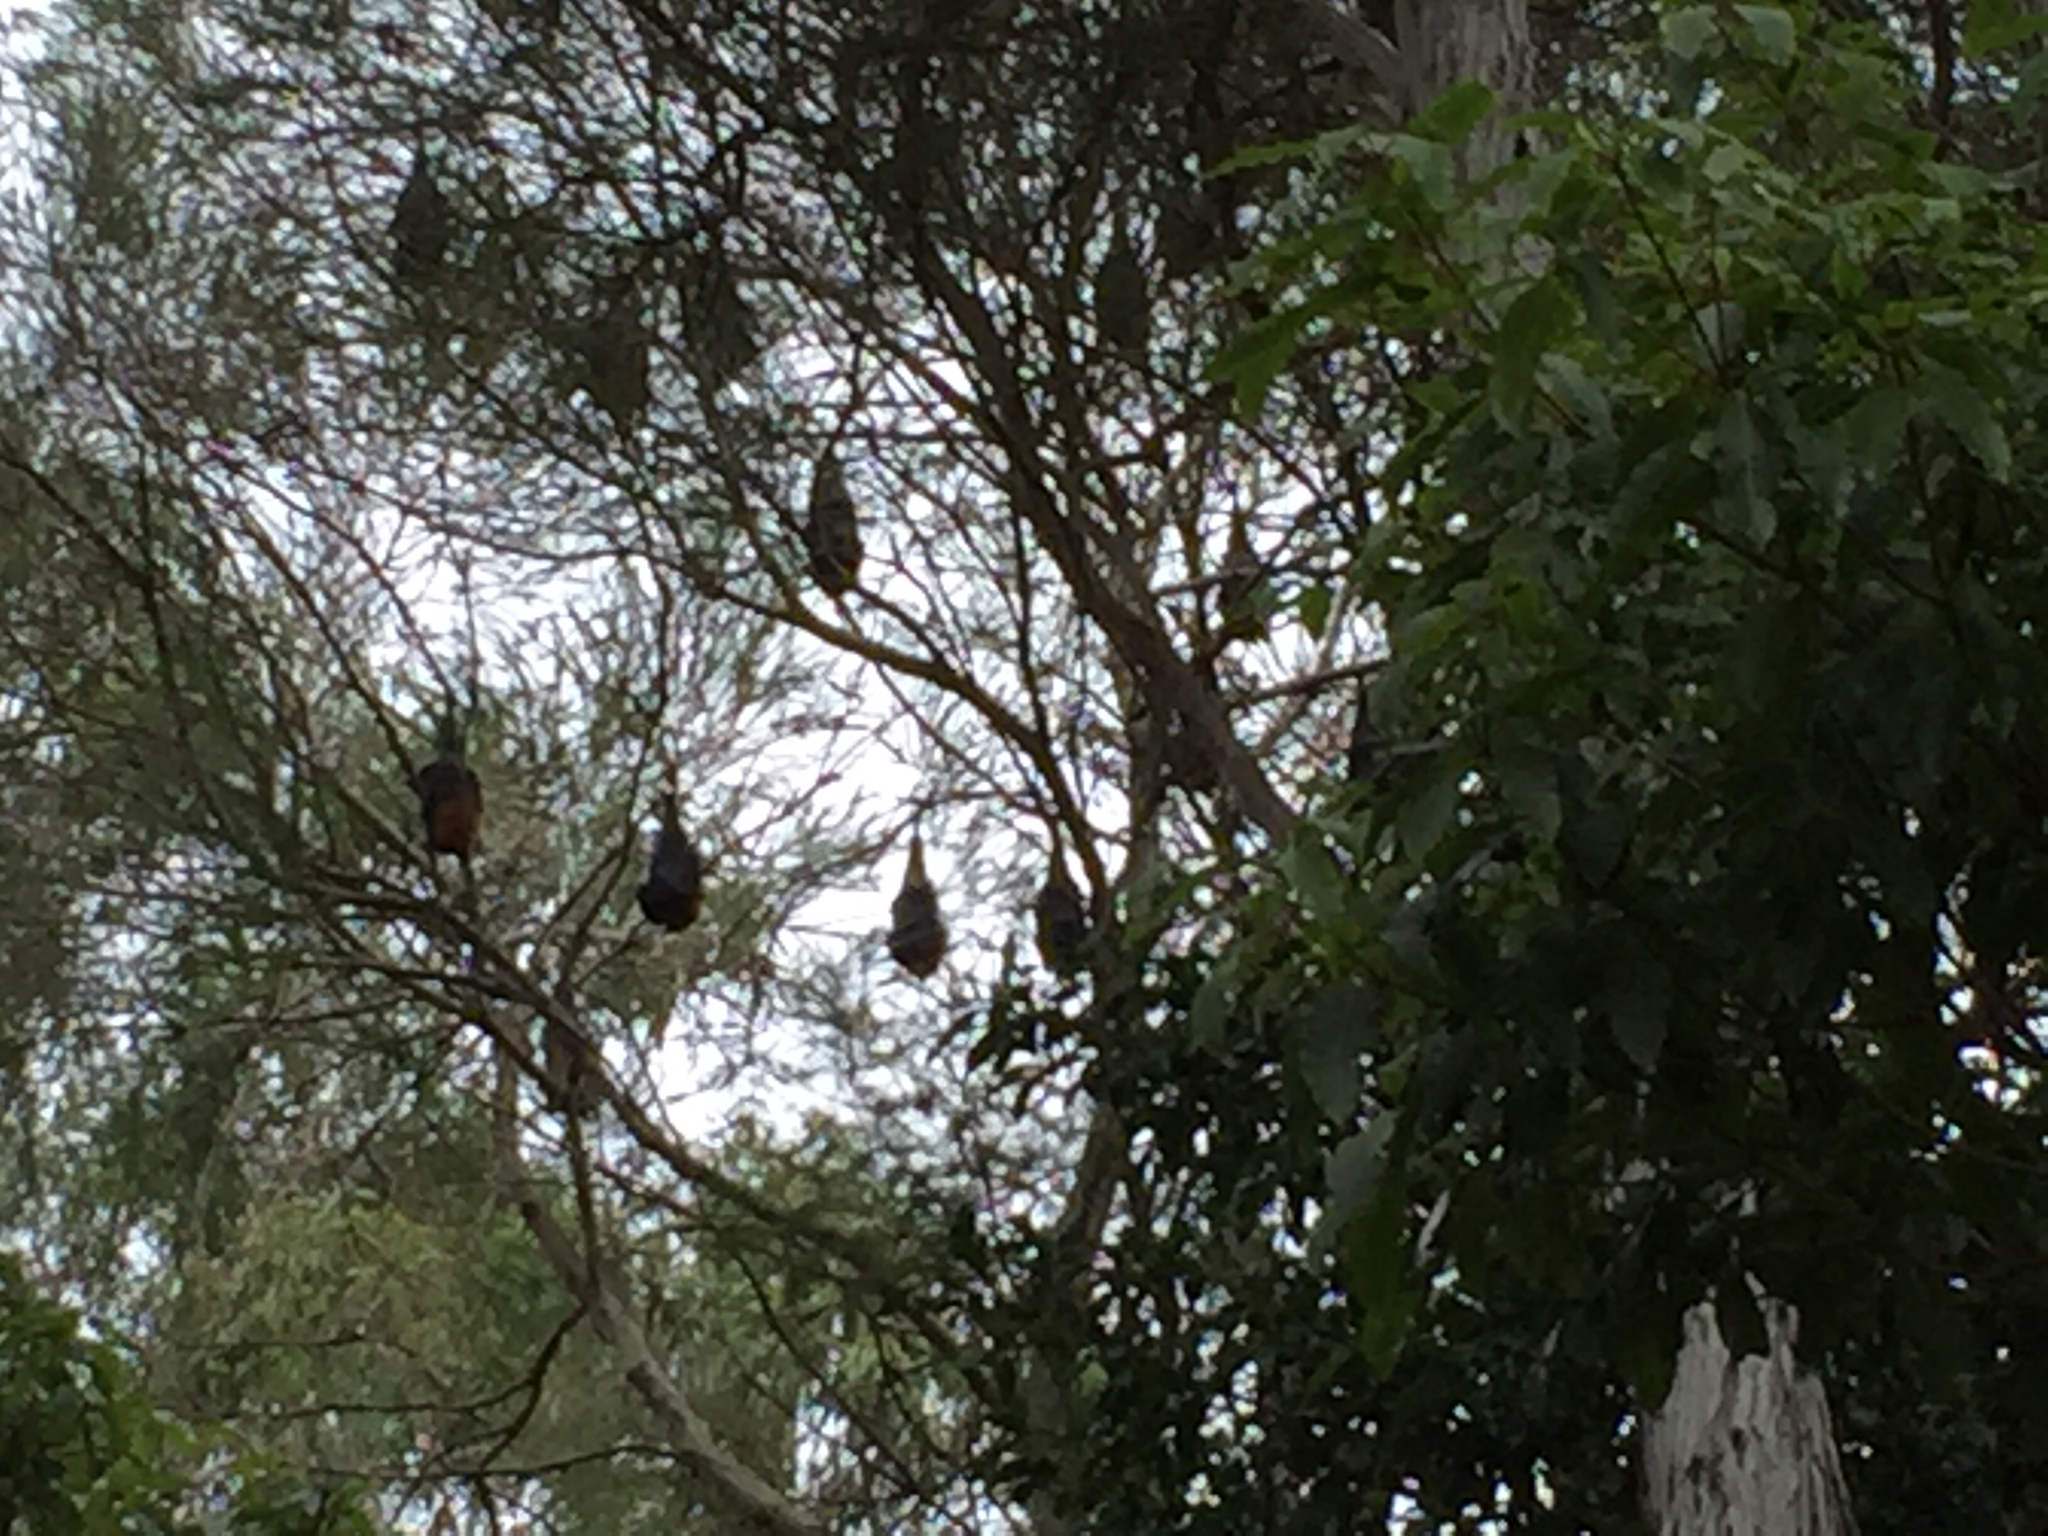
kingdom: Animalia
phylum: Chordata
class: Mammalia
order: Chiroptera
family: Pteropodidae
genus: Pteropus
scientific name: Pteropus poliocephalus
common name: Gray-headed flying fox
